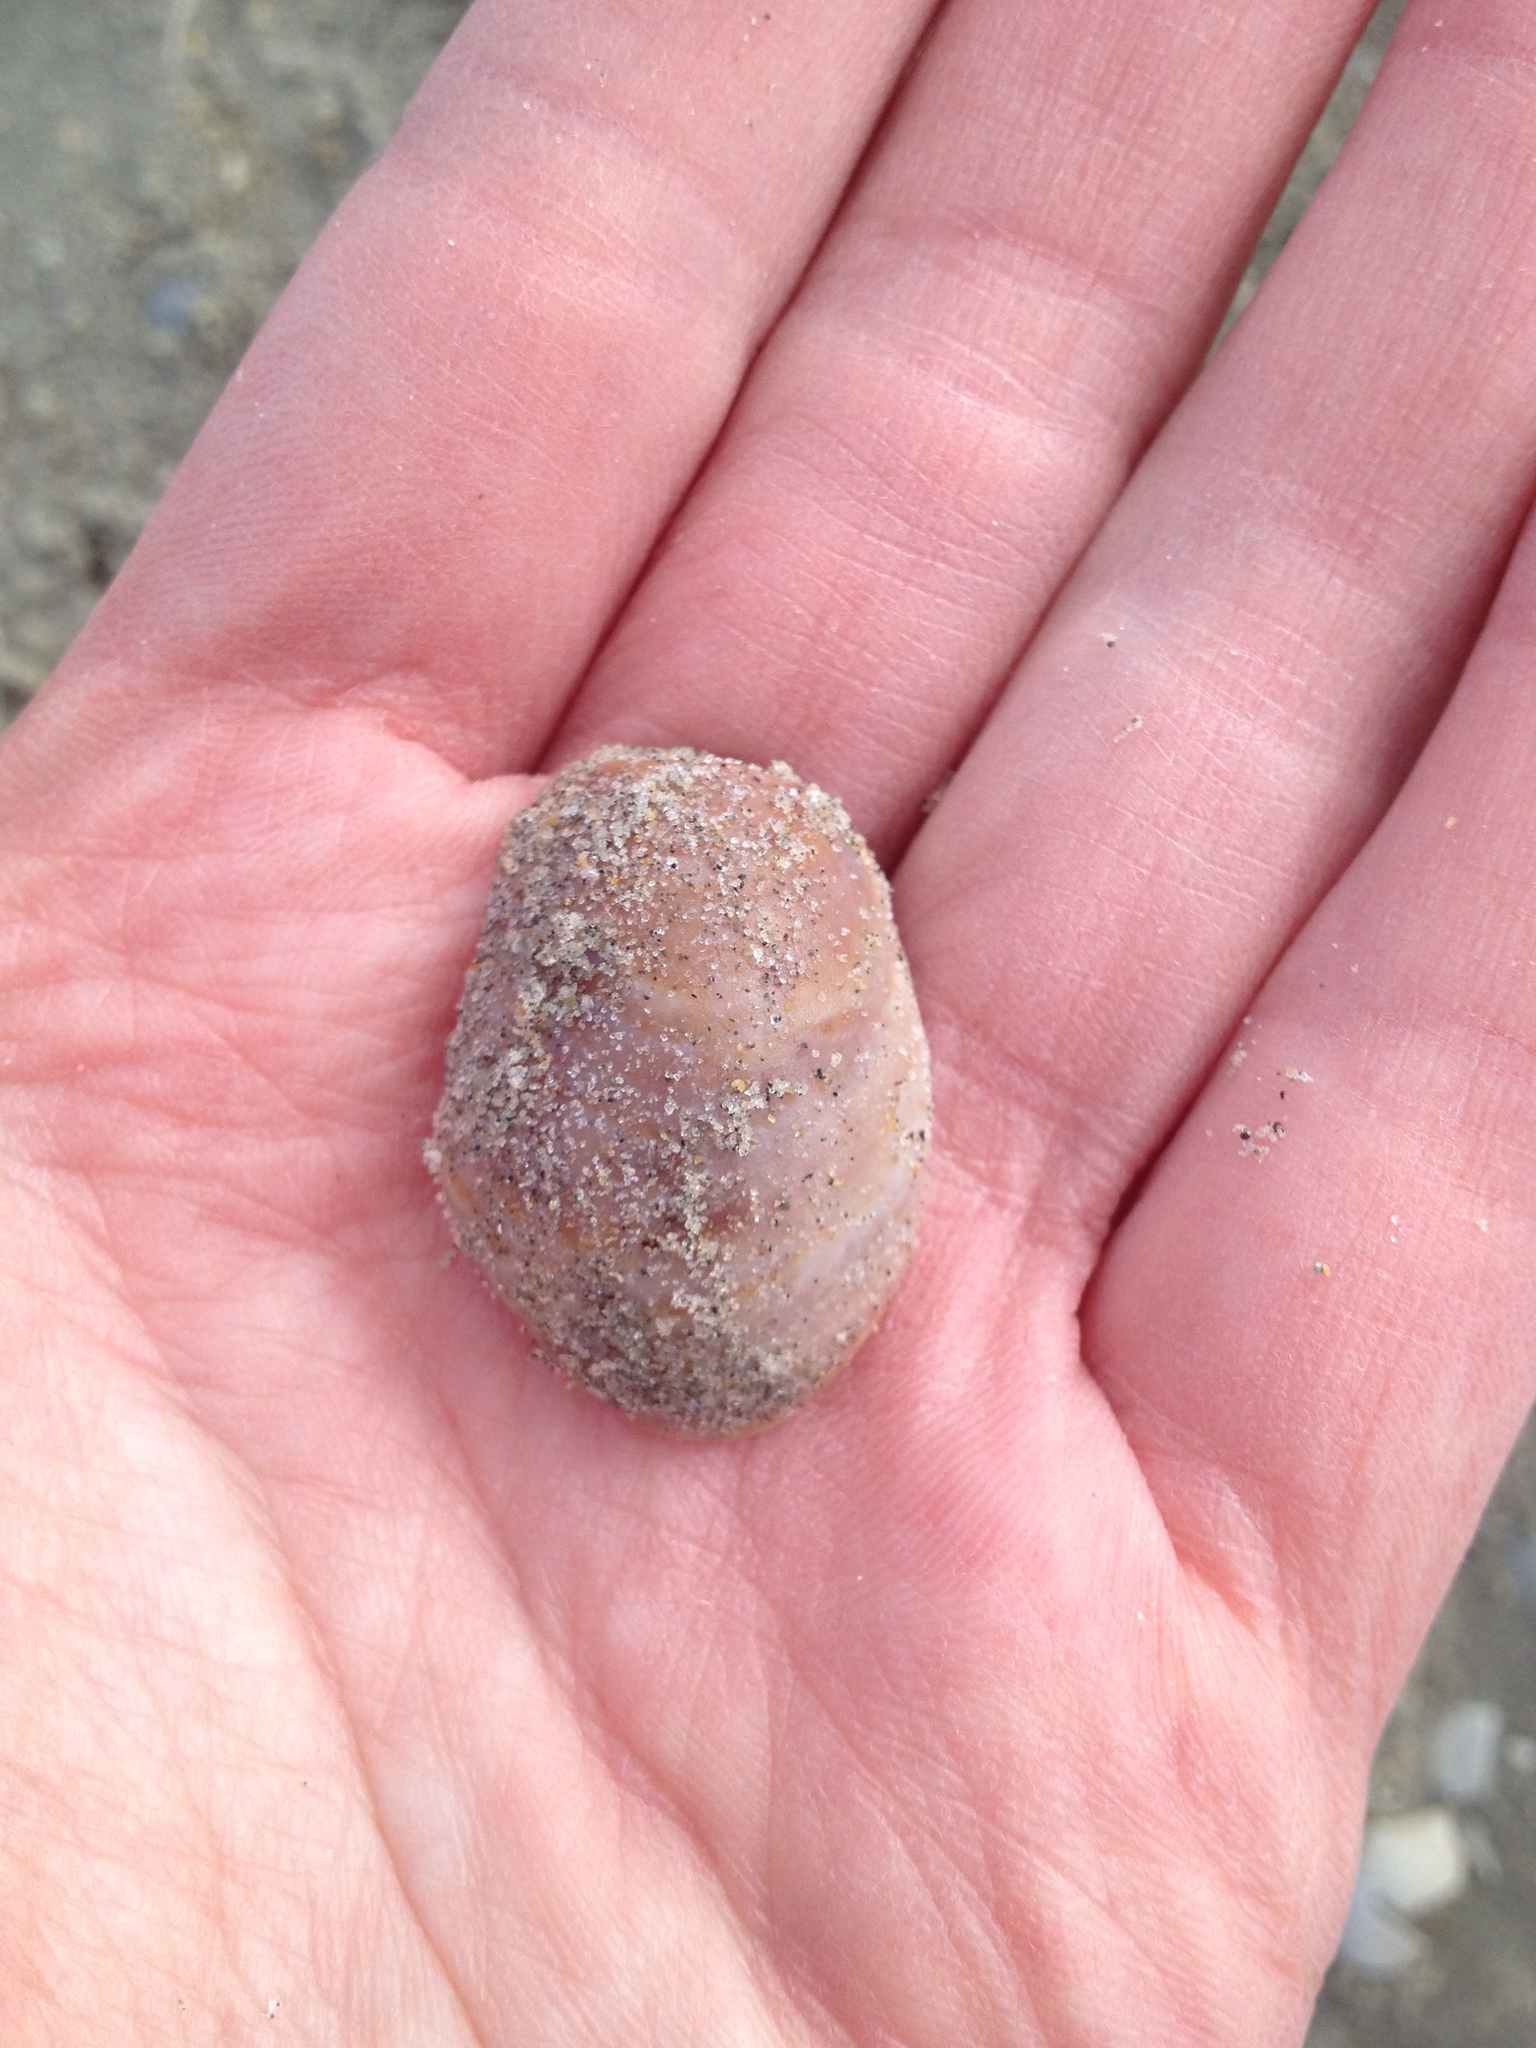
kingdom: Animalia
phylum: Mollusca
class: Gastropoda
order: Littorinimorpha
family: Calyptraeidae
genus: Crepidula
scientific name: Crepidula fornicata
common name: Slipper limpet
